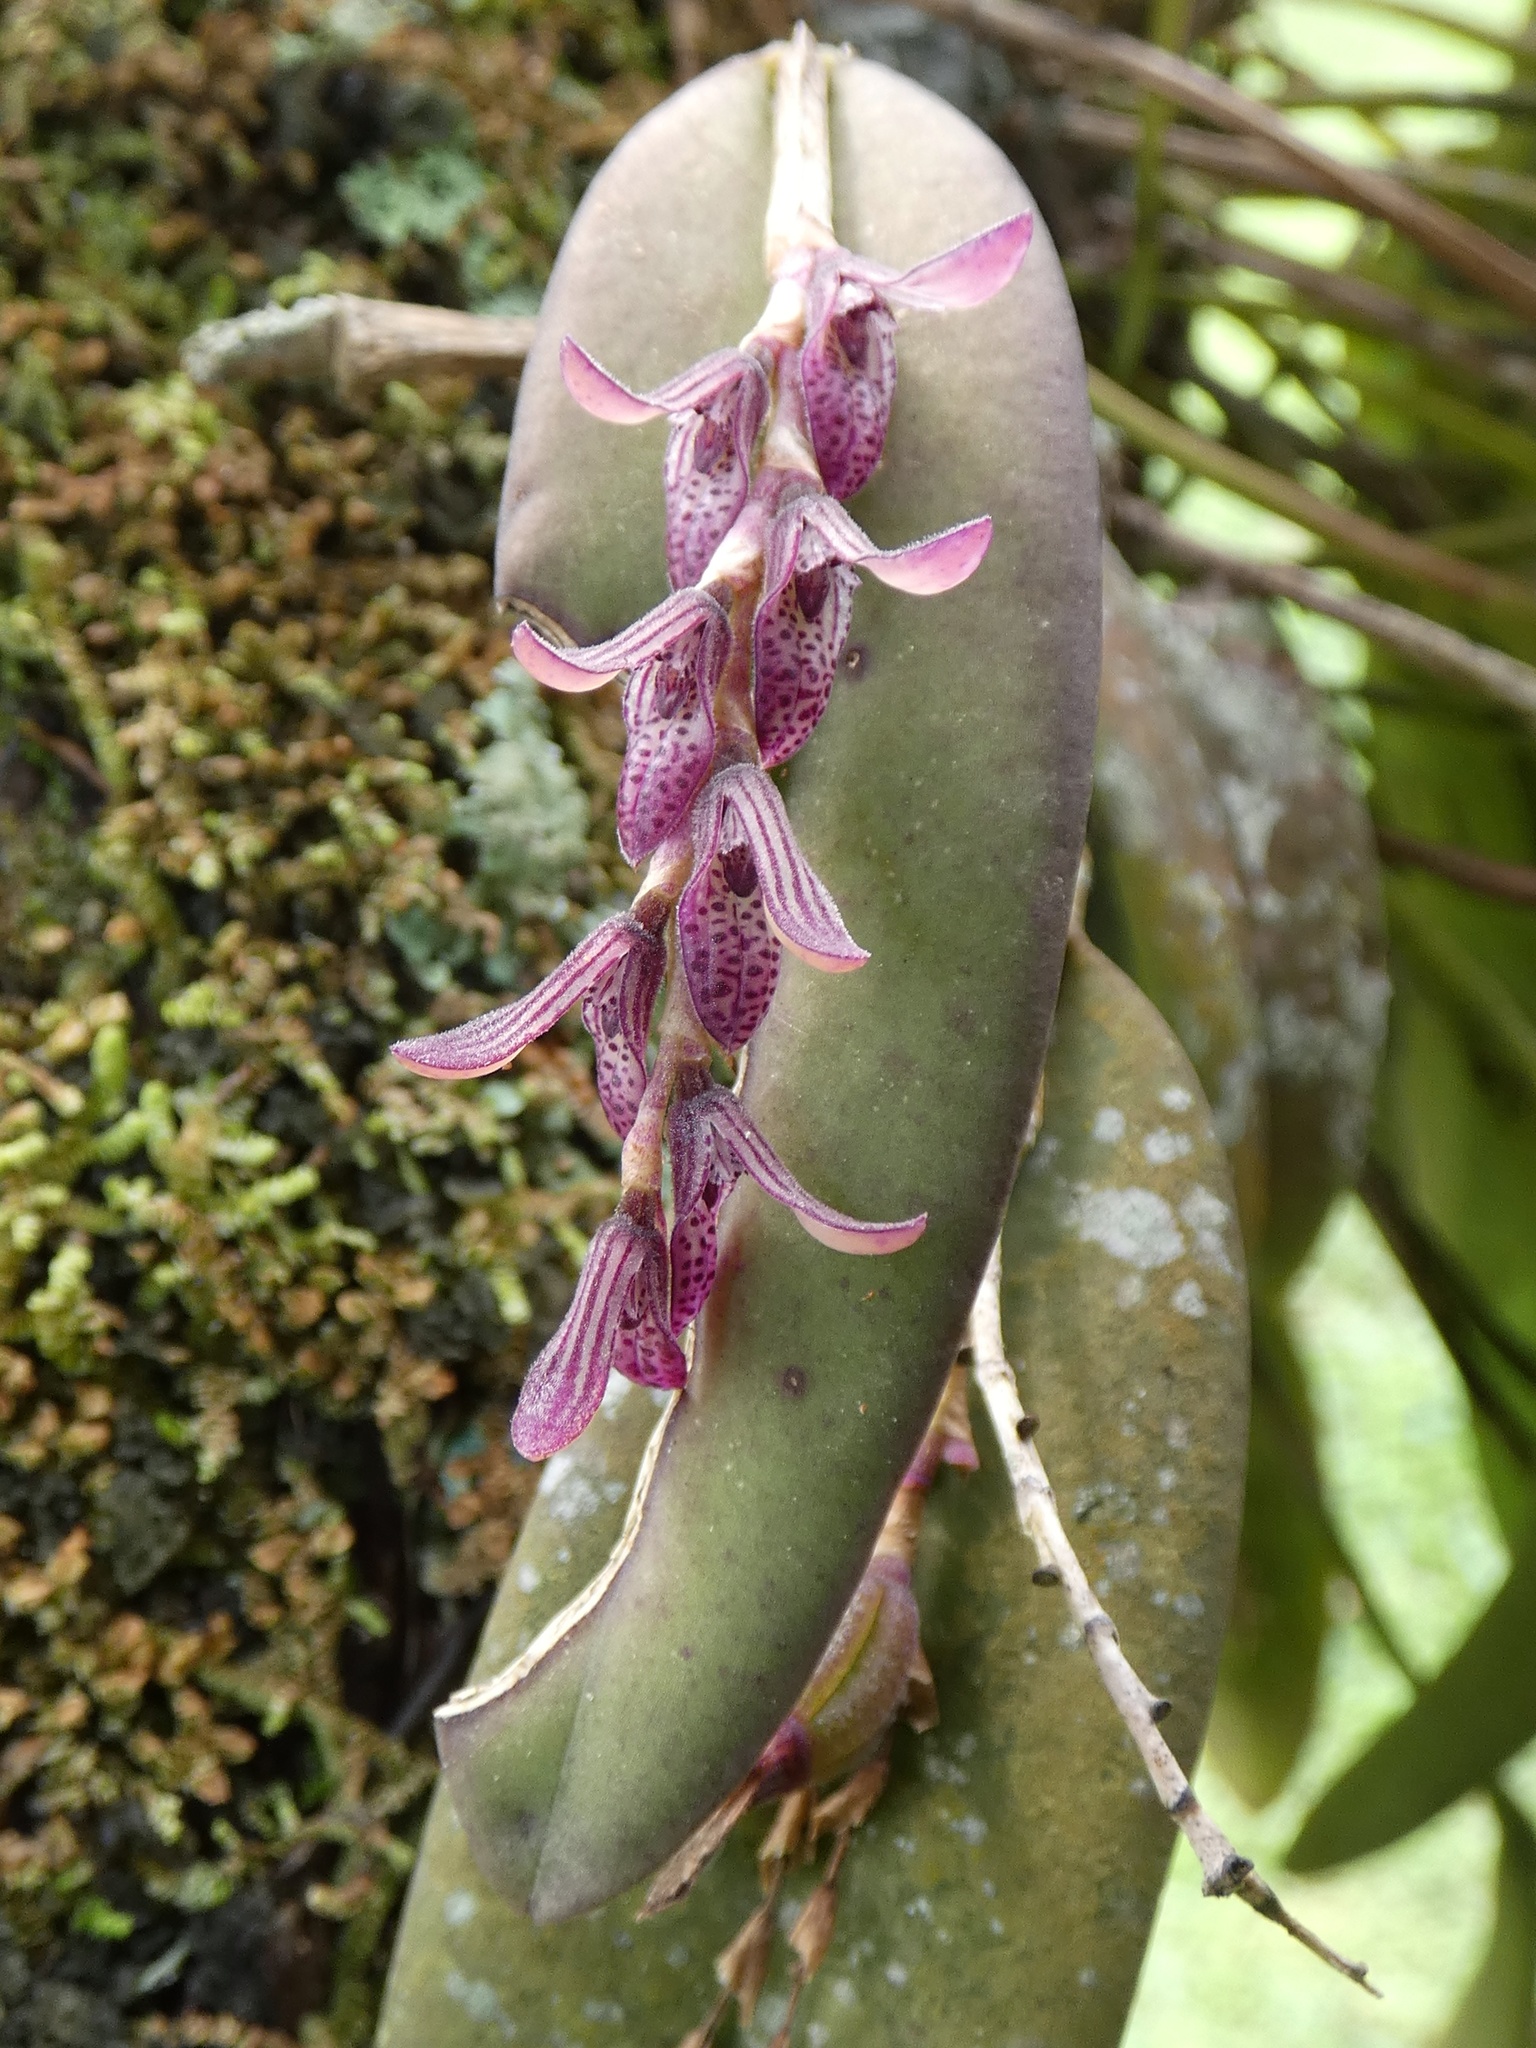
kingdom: Plantae
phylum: Tracheophyta
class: Liliopsida
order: Asparagales
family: Orchidaceae
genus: Acianthera
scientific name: Acianthera pubescens
